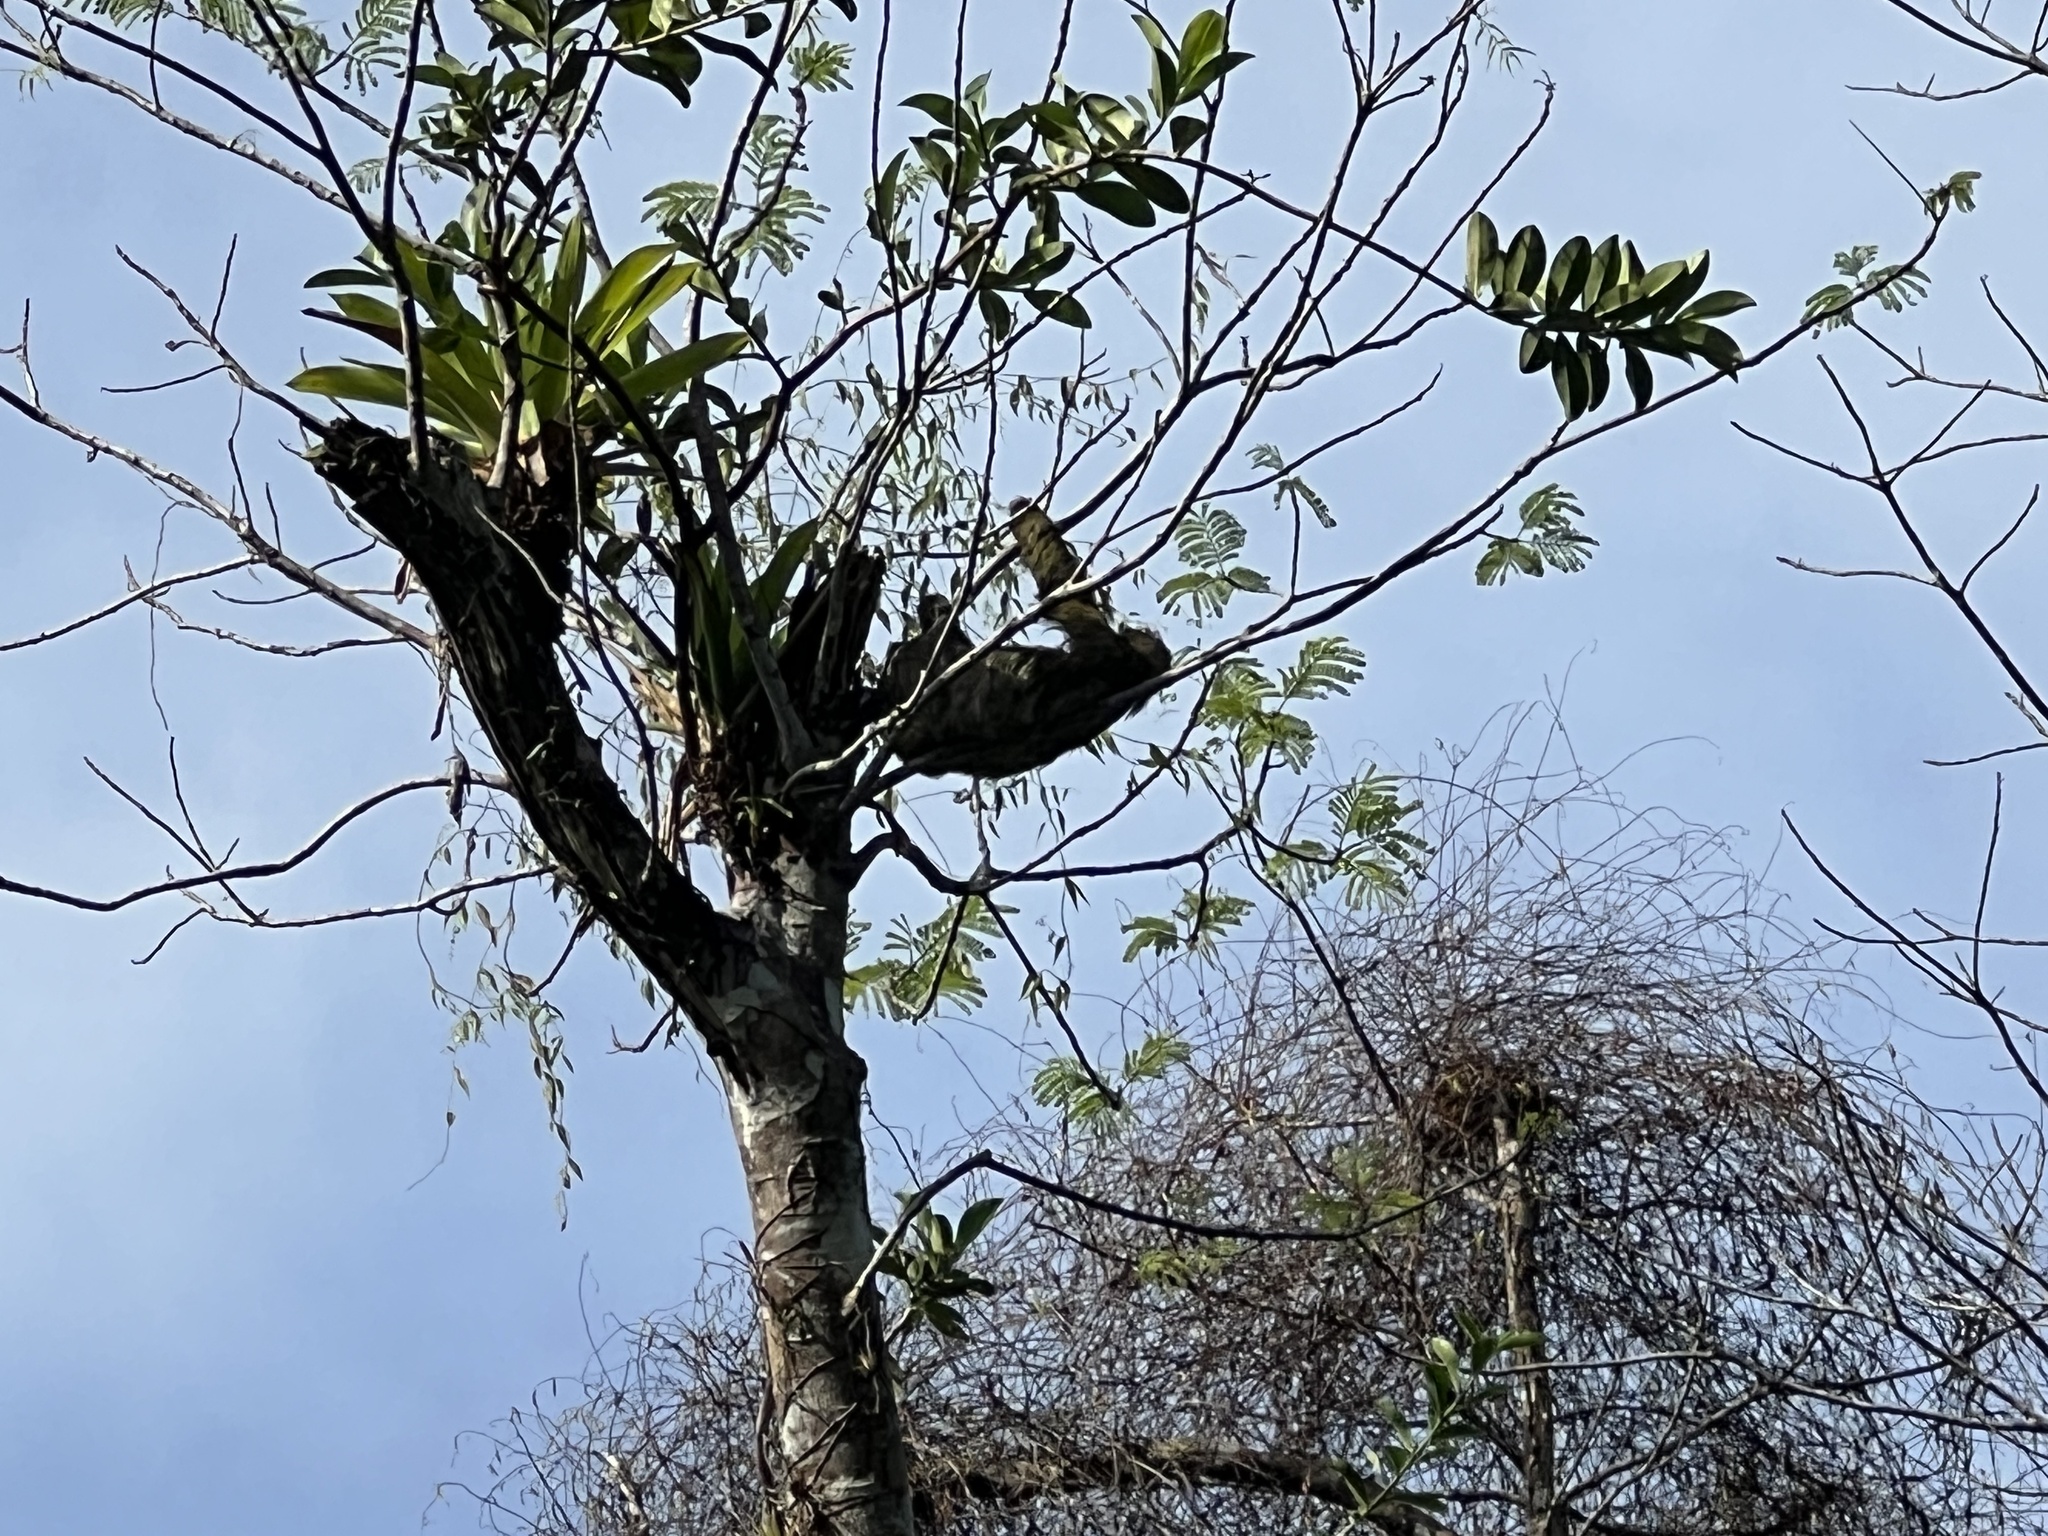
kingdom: Animalia
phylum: Chordata
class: Mammalia
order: Pilosa
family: Bradypodidae
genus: Bradypus
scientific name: Bradypus variegatus
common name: Brown-throated three-toed sloth
